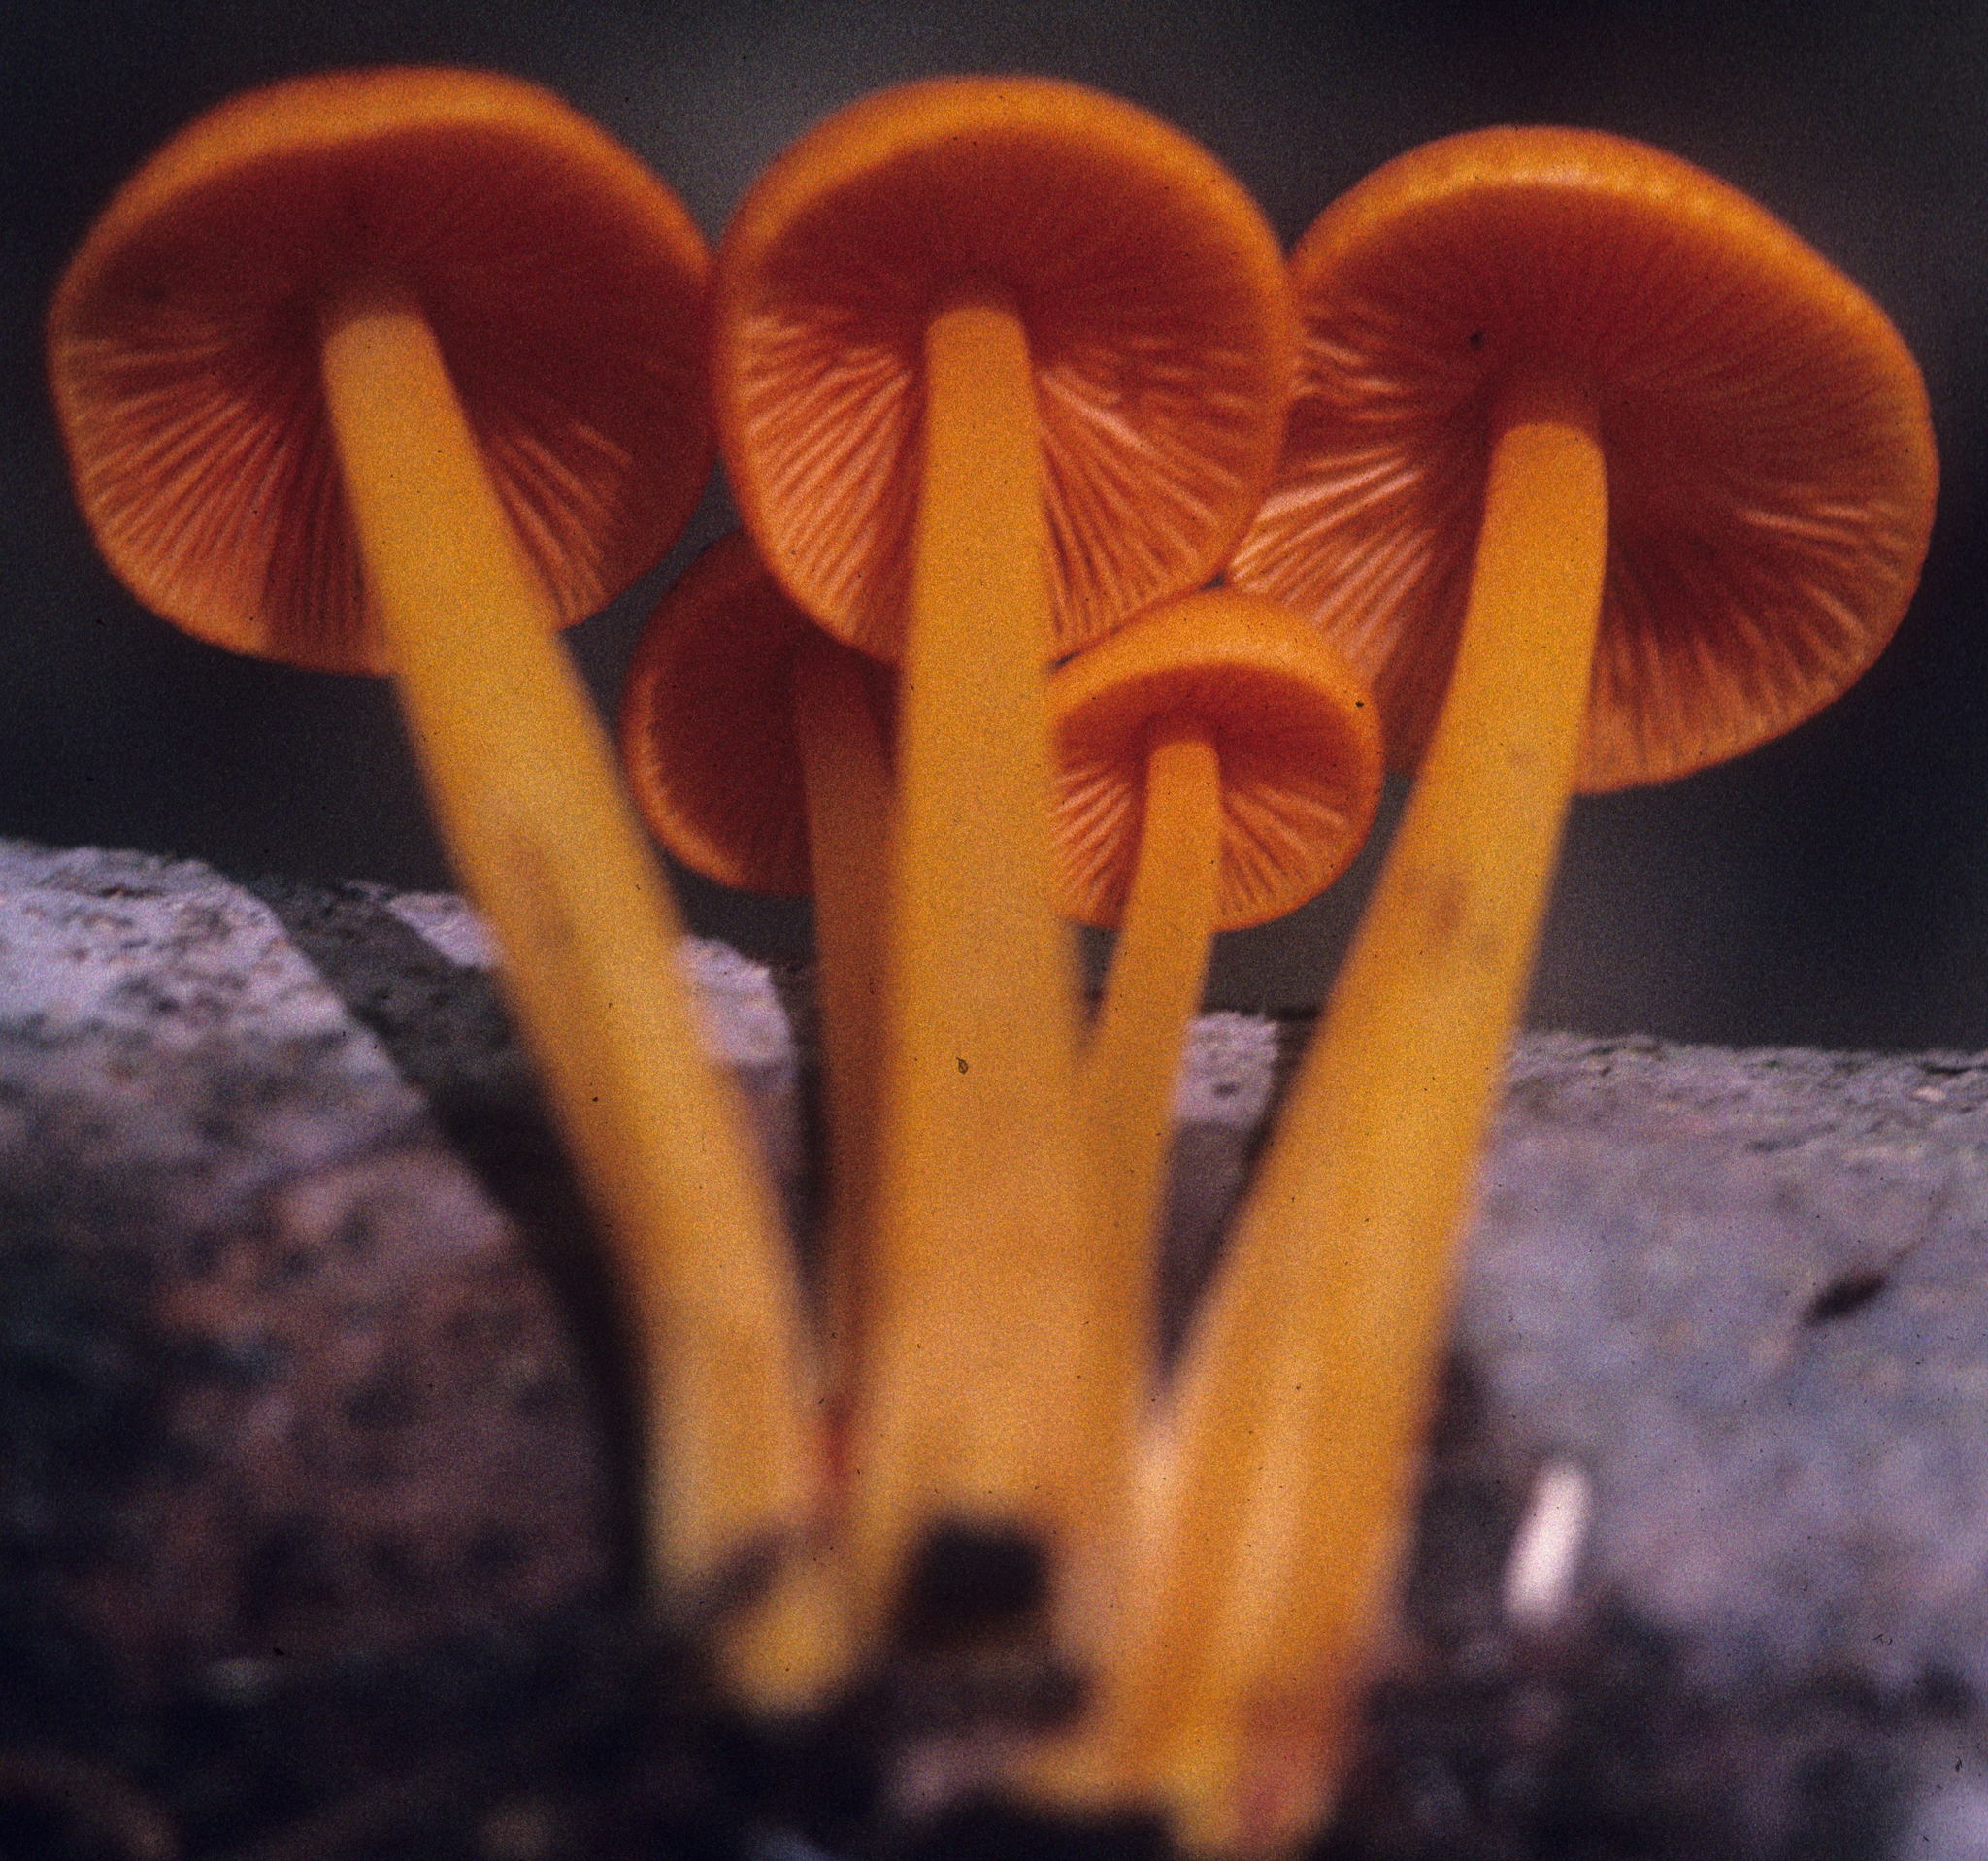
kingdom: Fungi
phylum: Basidiomycota
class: Agaricomycetes
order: Agaricales
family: Mycenaceae
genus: Mycena
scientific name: Mycena leaiana
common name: Orange mycena
